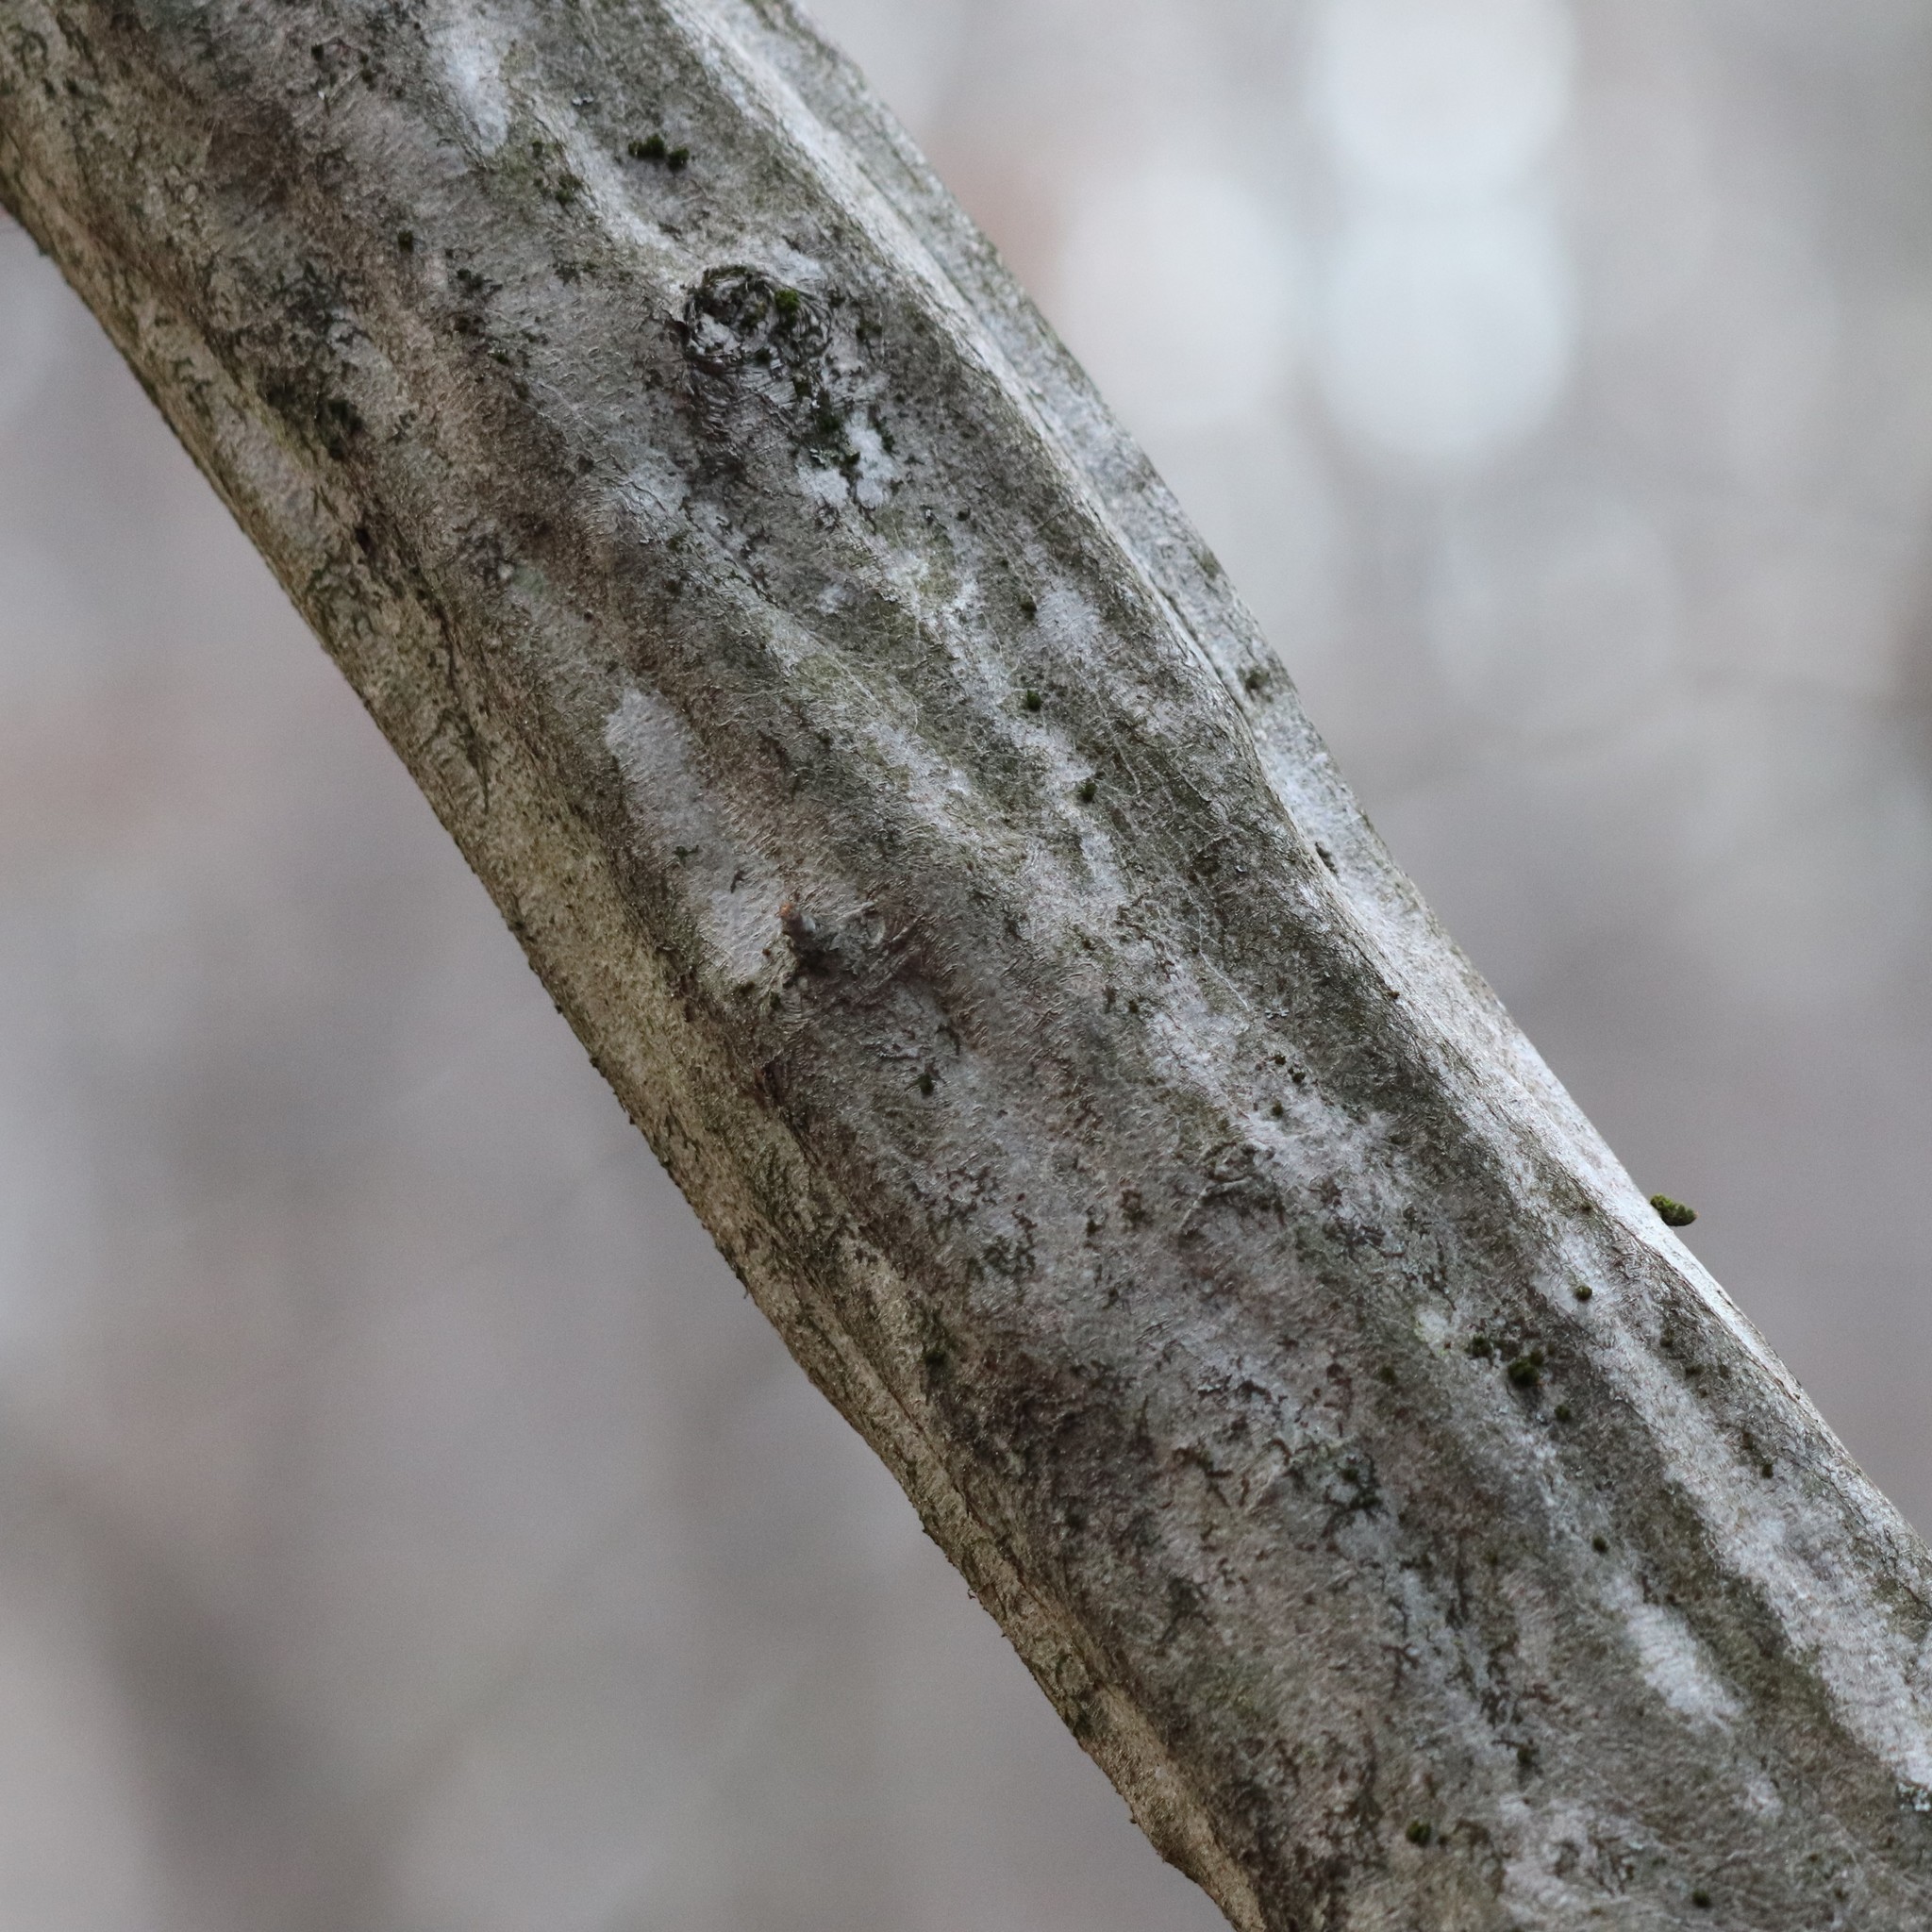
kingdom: Plantae
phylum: Tracheophyta
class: Magnoliopsida
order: Fagales
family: Betulaceae
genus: Carpinus
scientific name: Carpinus caroliniana
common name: American hornbeam
